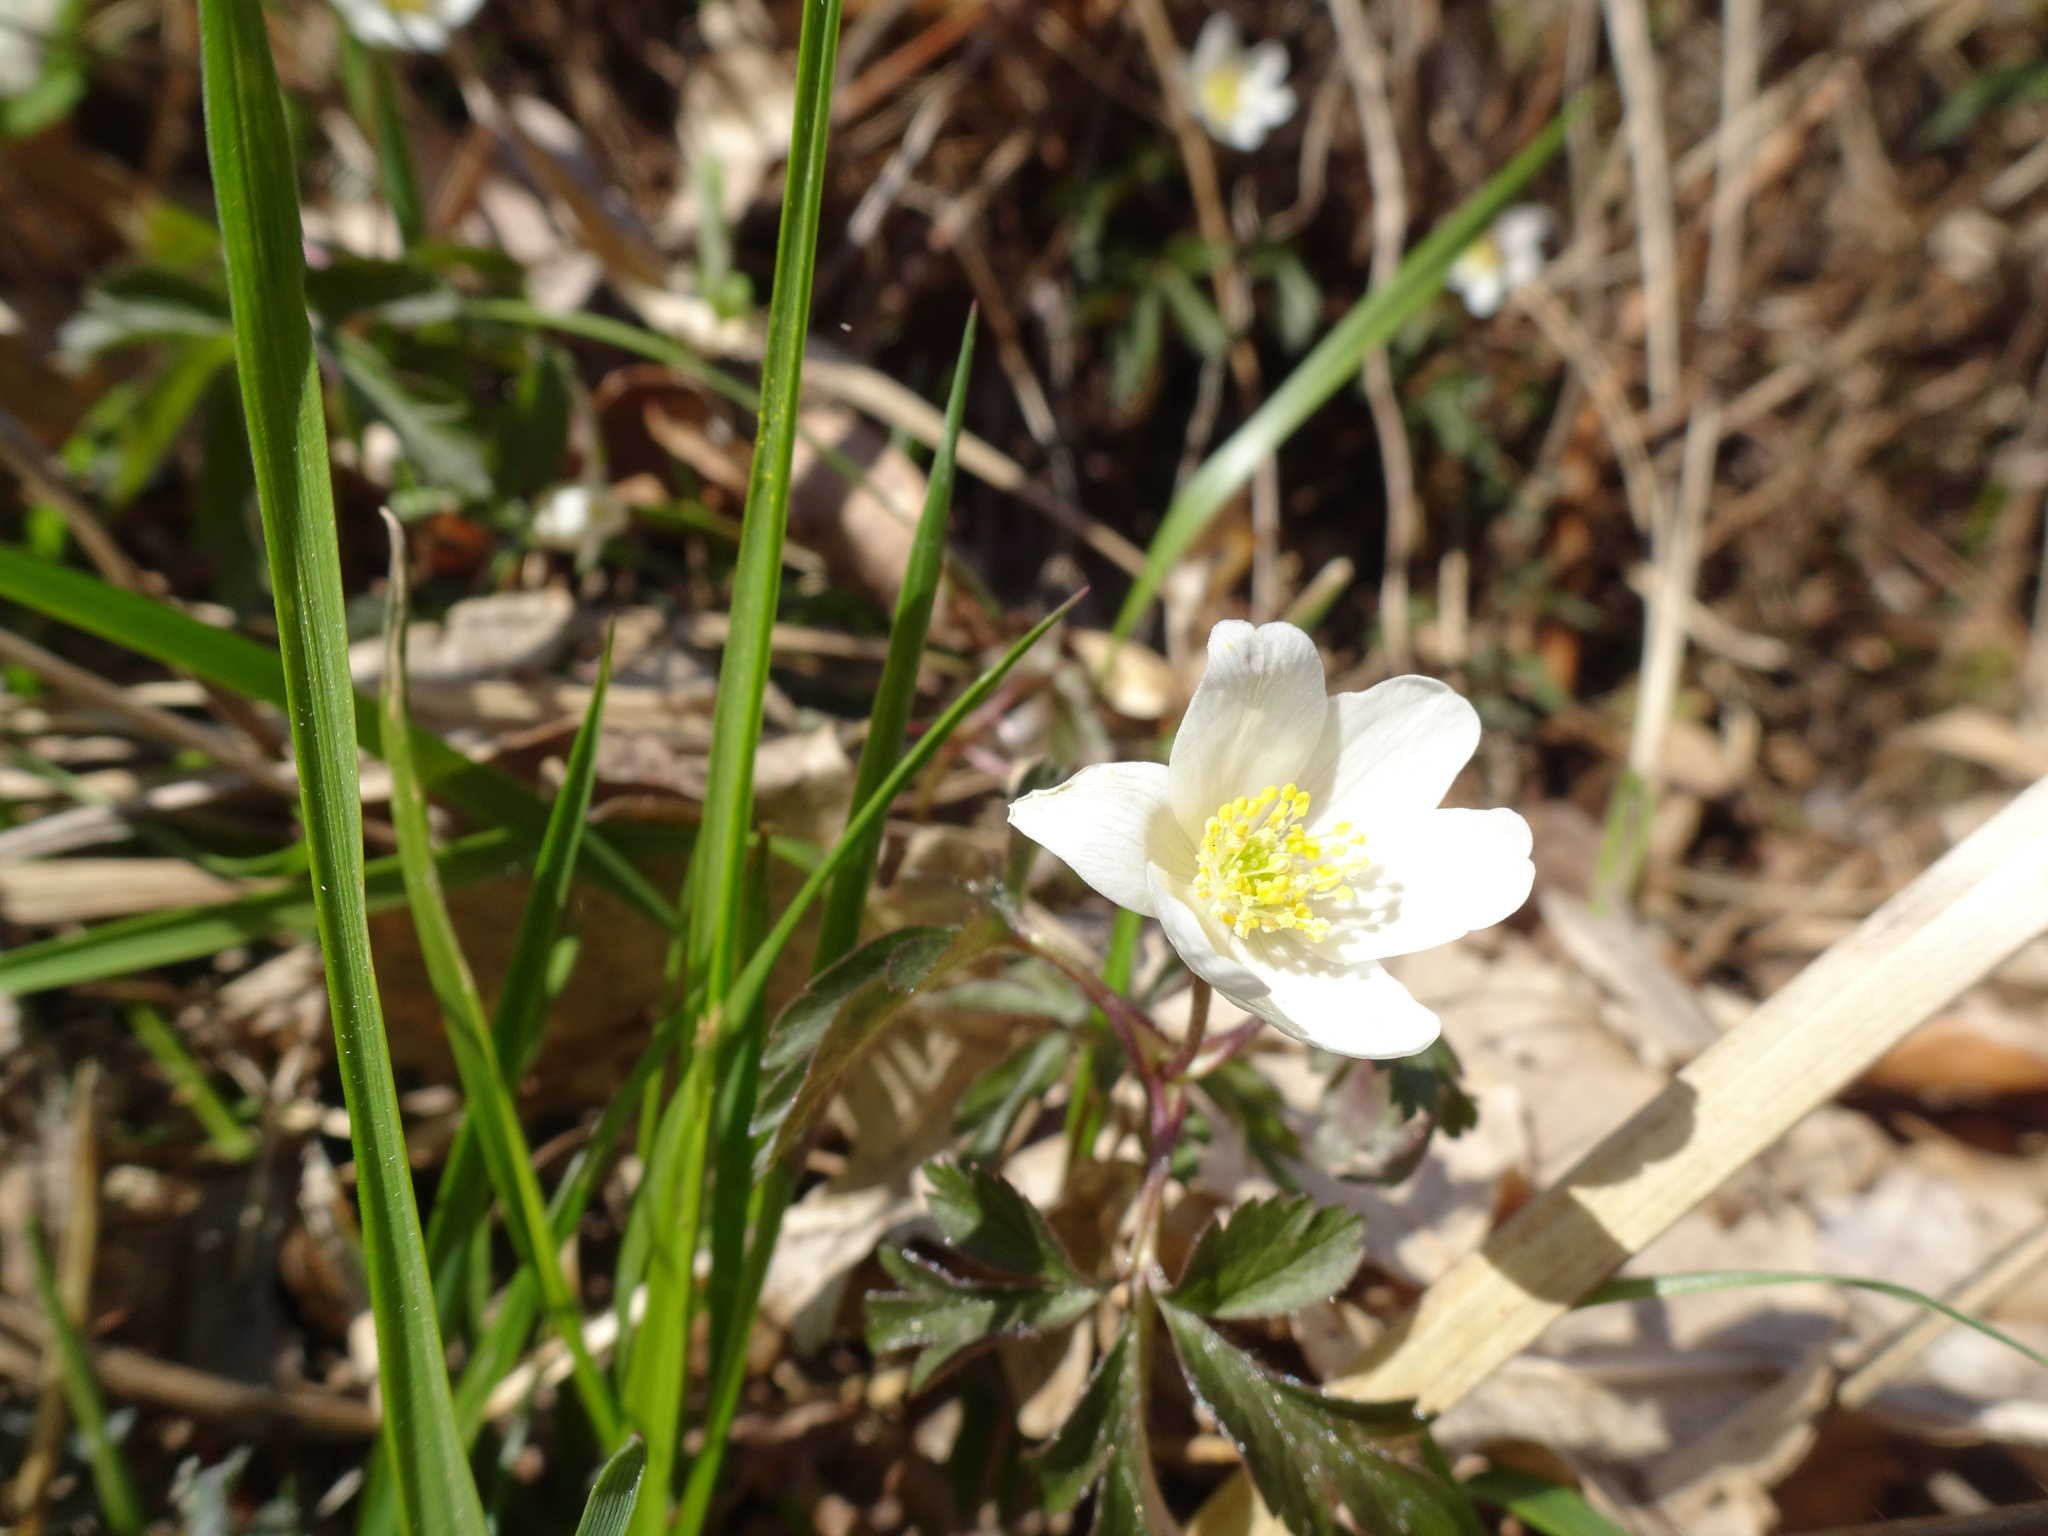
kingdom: Plantae
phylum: Tracheophyta
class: Magnoliopsida
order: Ranunculales
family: Ranunculaceae
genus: Anemone
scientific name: Anemone nemorosa
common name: Wood anemone
